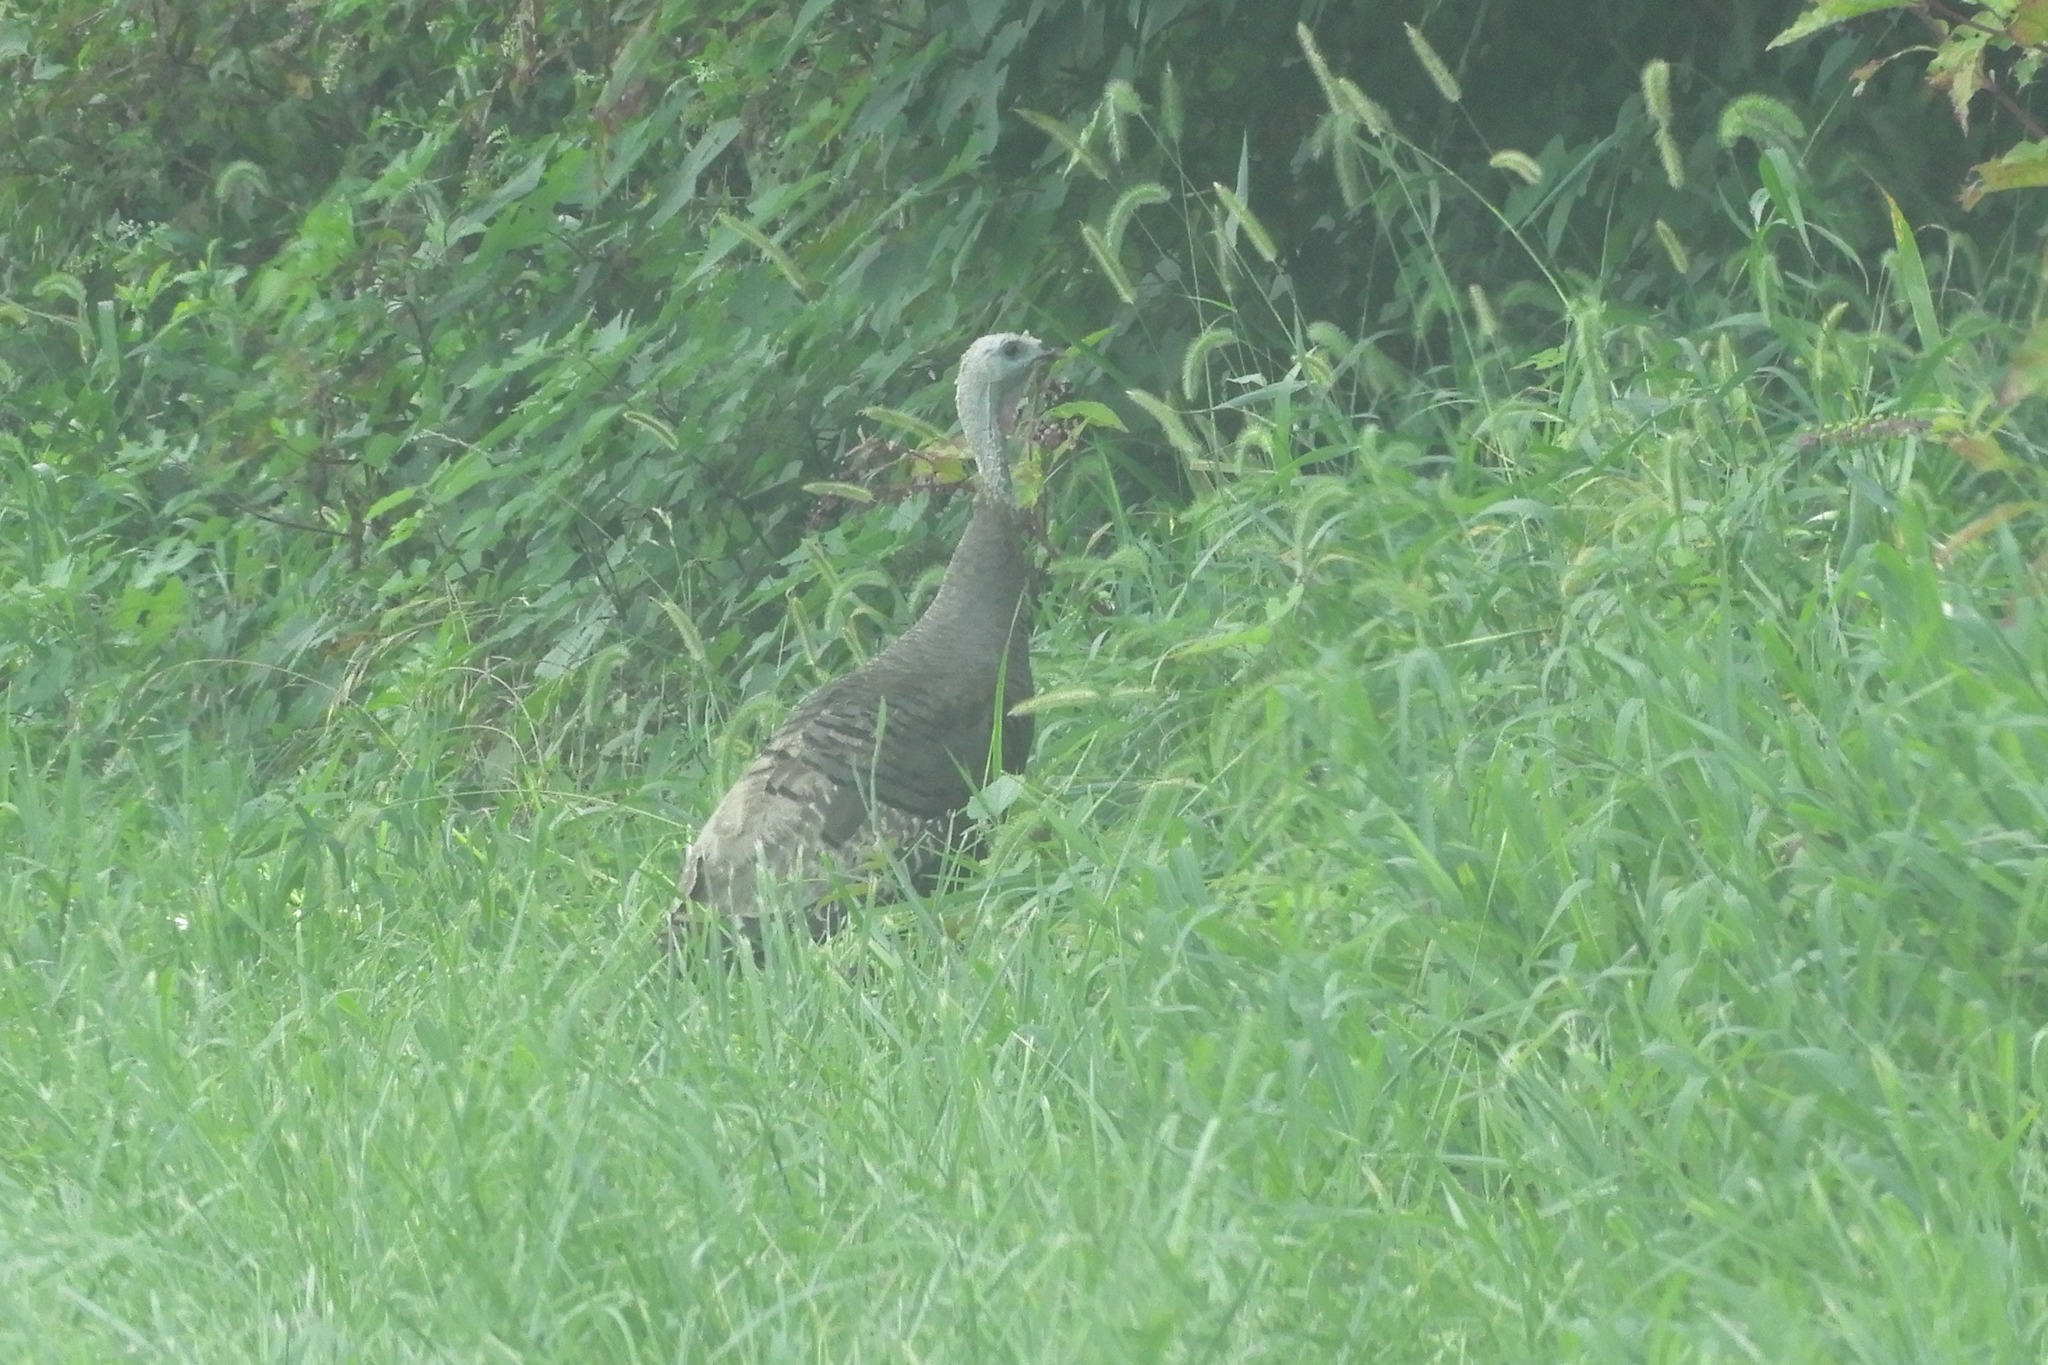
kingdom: Animalia
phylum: Chordata
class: Aves
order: Galliformes
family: Phasianidae
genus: Meleagris
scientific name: Meleagris gallopavo
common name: Wild turkey
